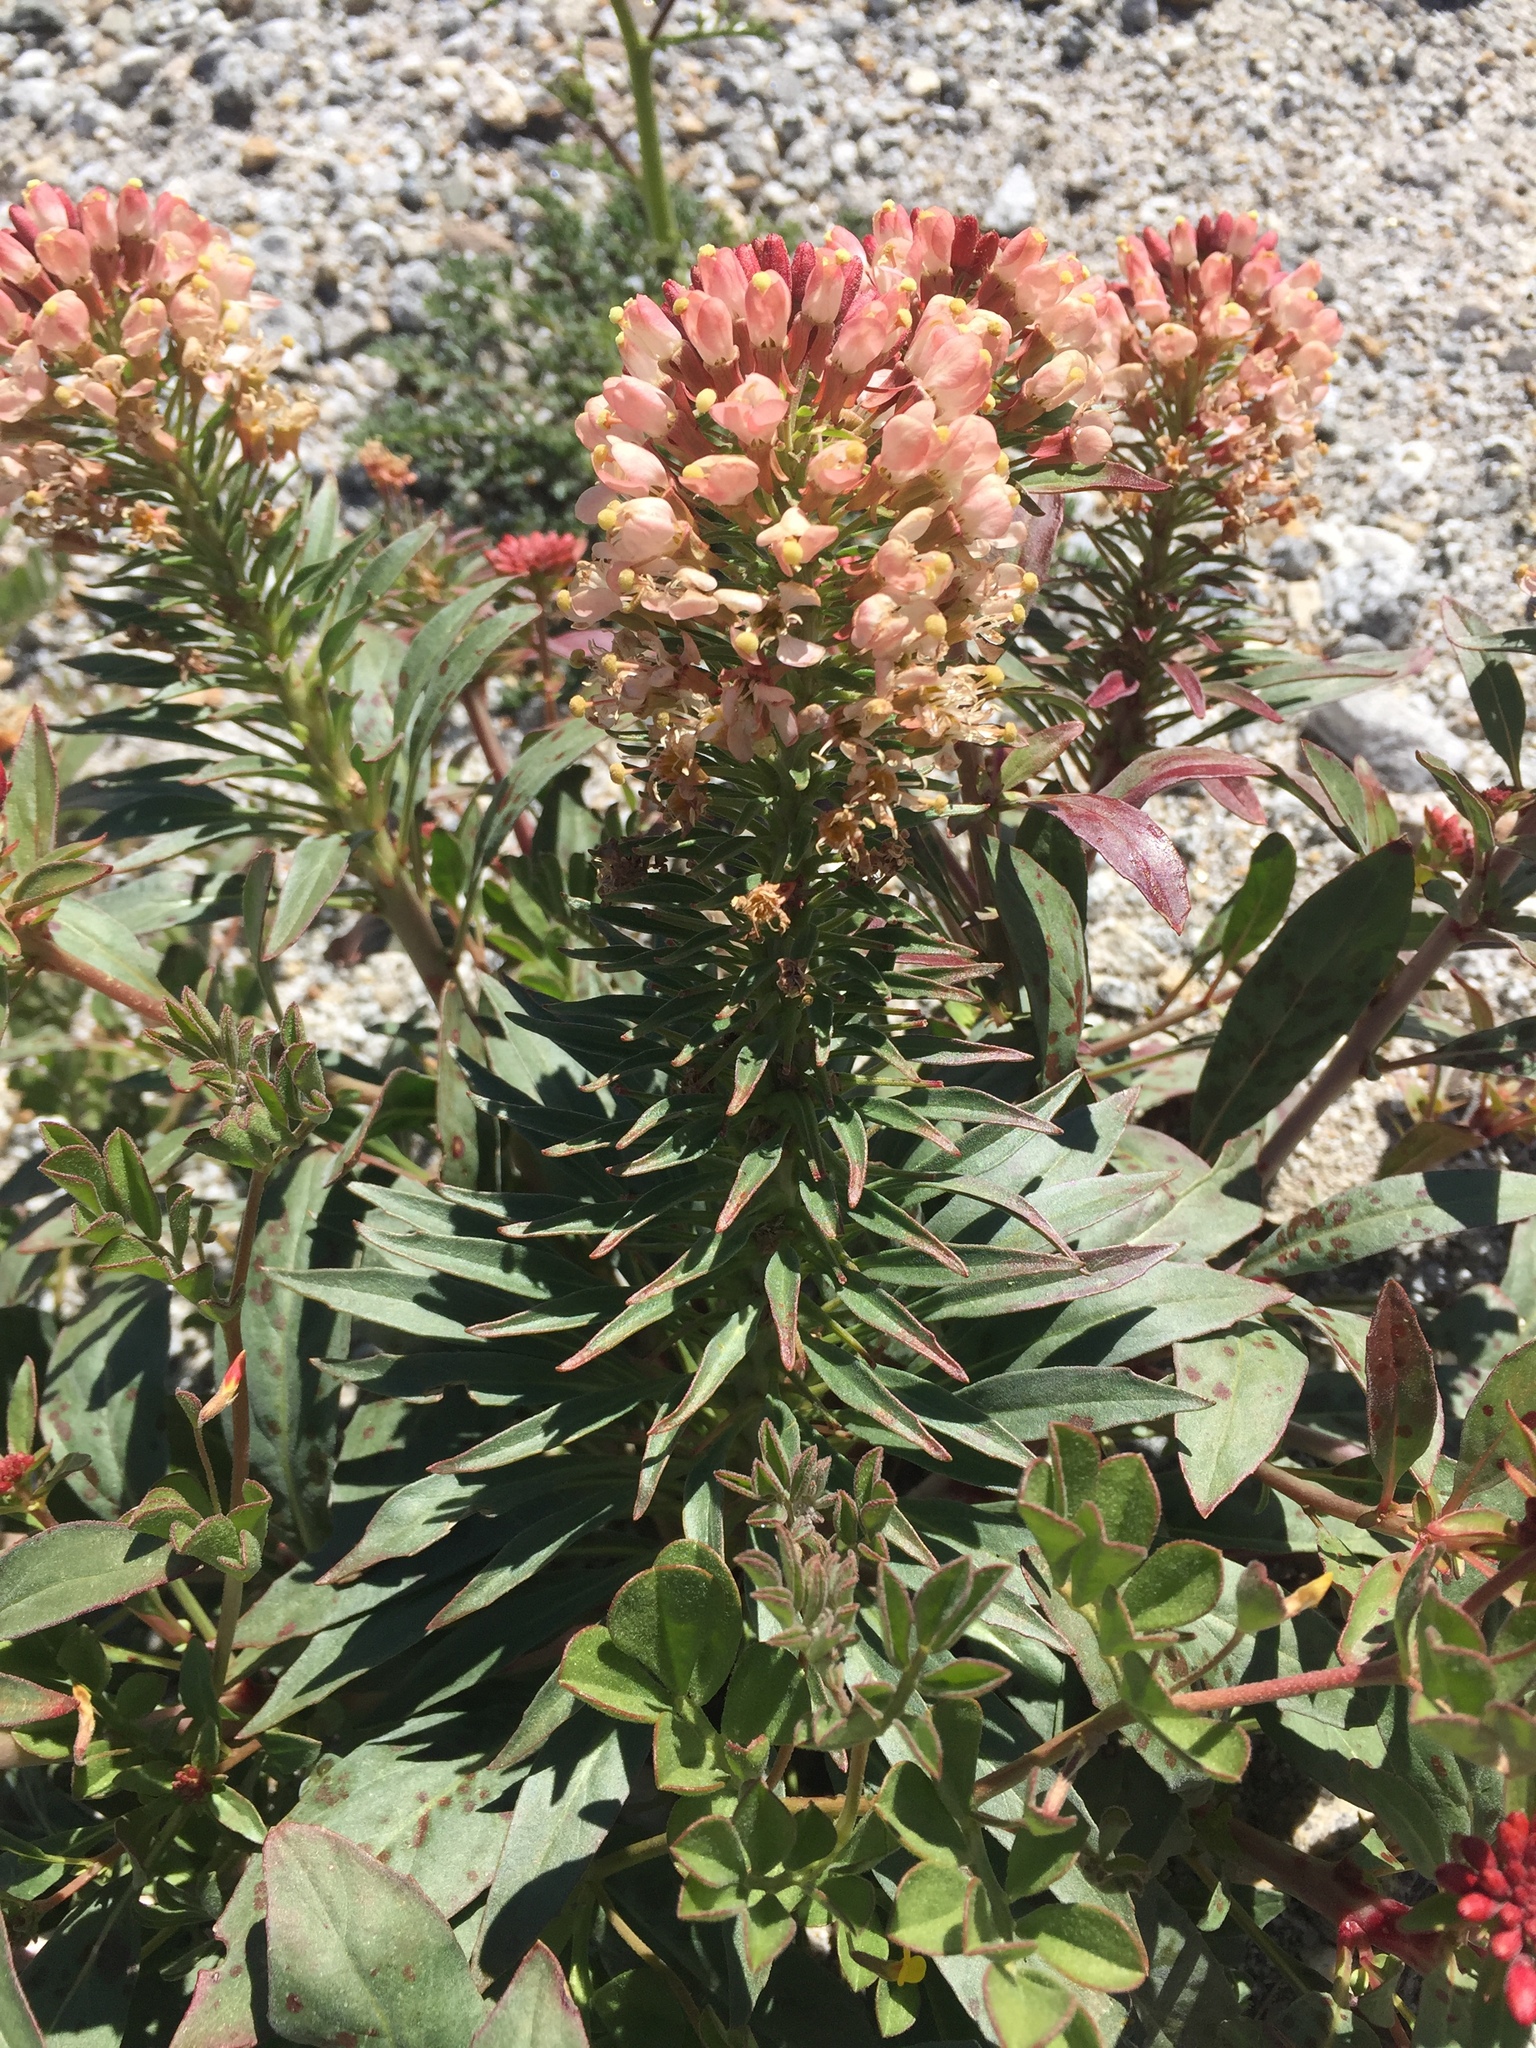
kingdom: Plantae
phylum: Tracheophyta
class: Magnoliopsida
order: Myrtales
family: Onagraceae
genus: Eremothera
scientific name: Eremothera boothii
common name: Booth's evening primrose
